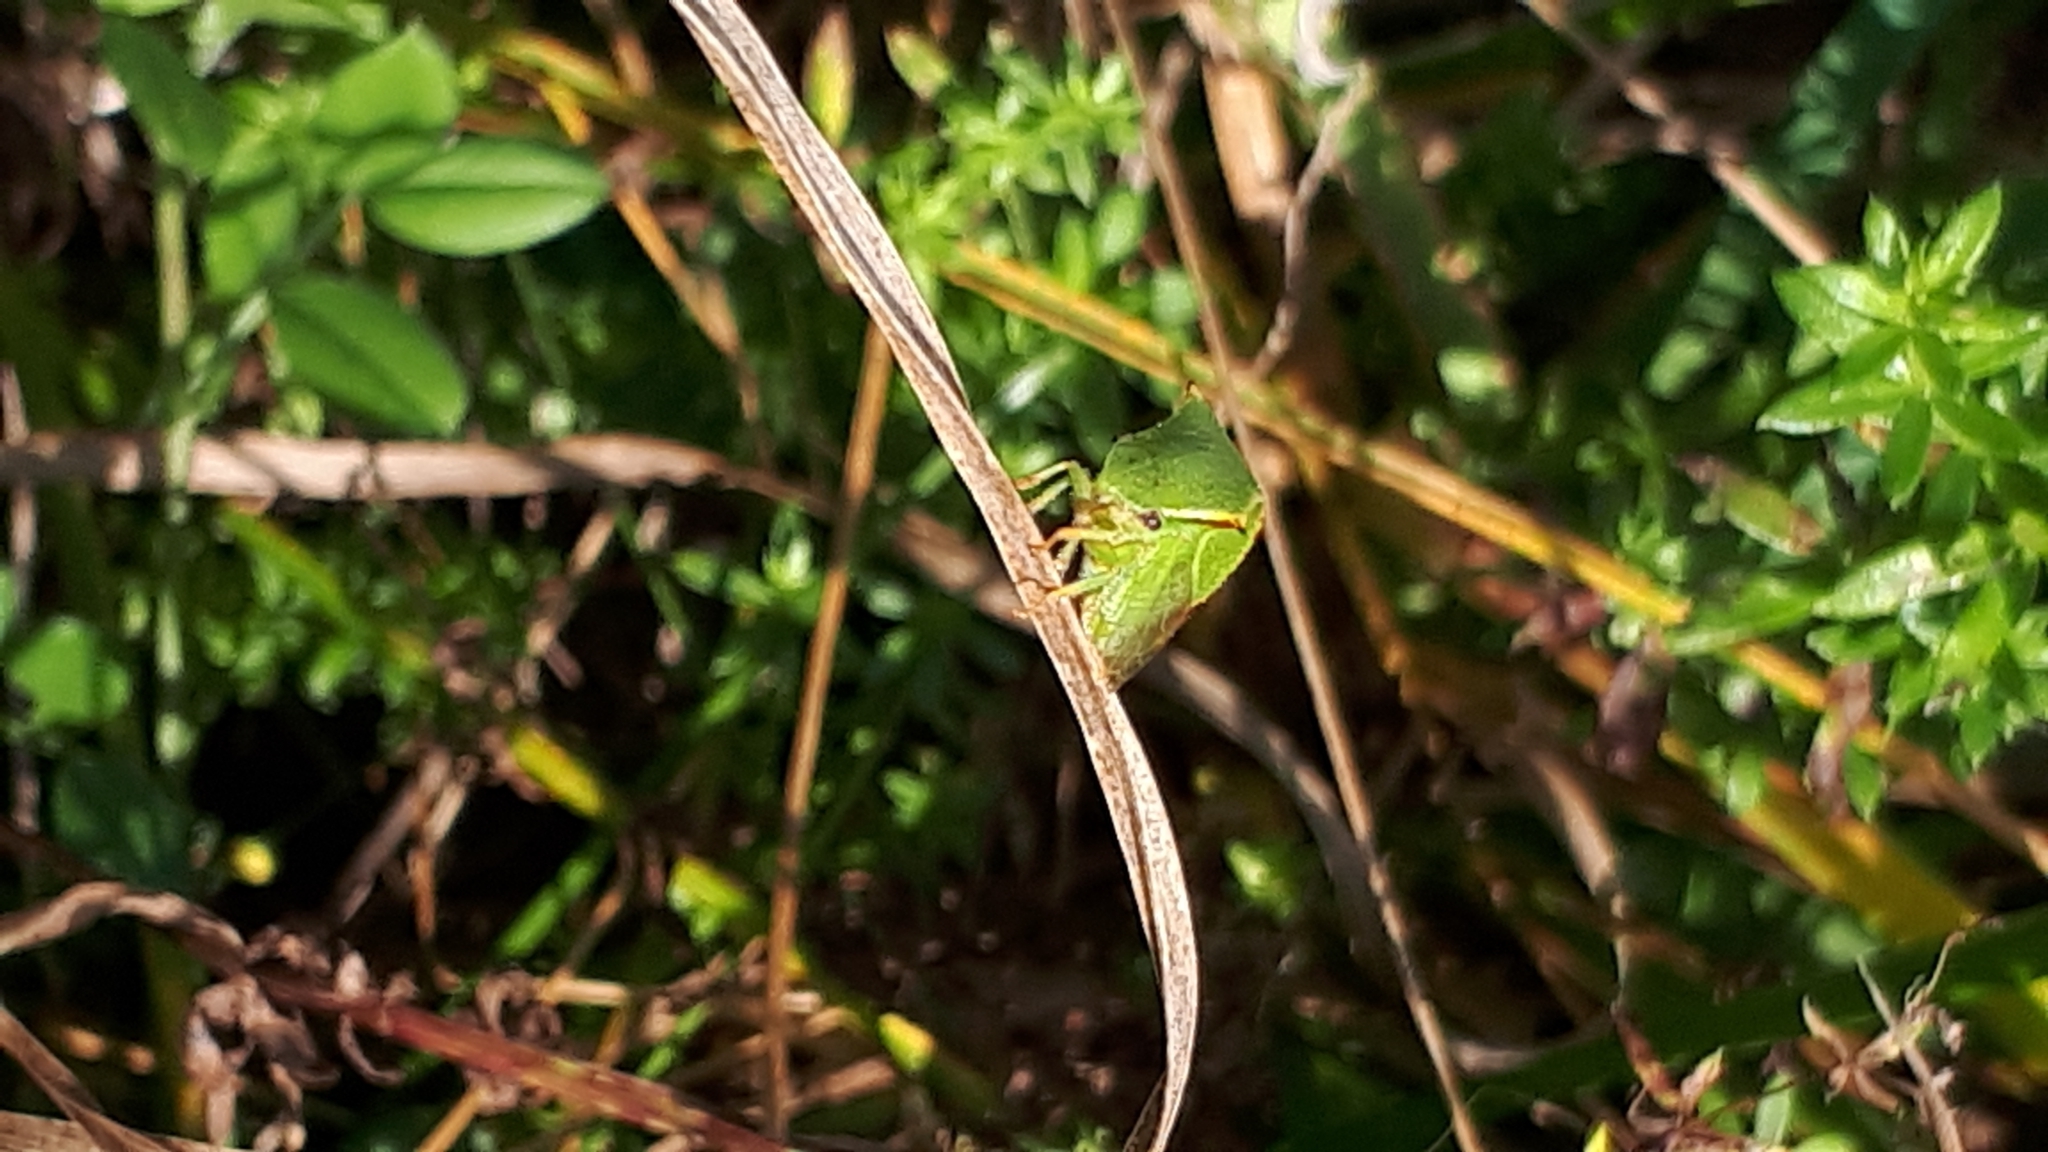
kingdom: Animalia
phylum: Arthropoda
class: Insecta
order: Hemiptera
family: Membracidae
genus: Stictocephala
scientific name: Stictocephala bisonia
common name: American buffalo treehopper
